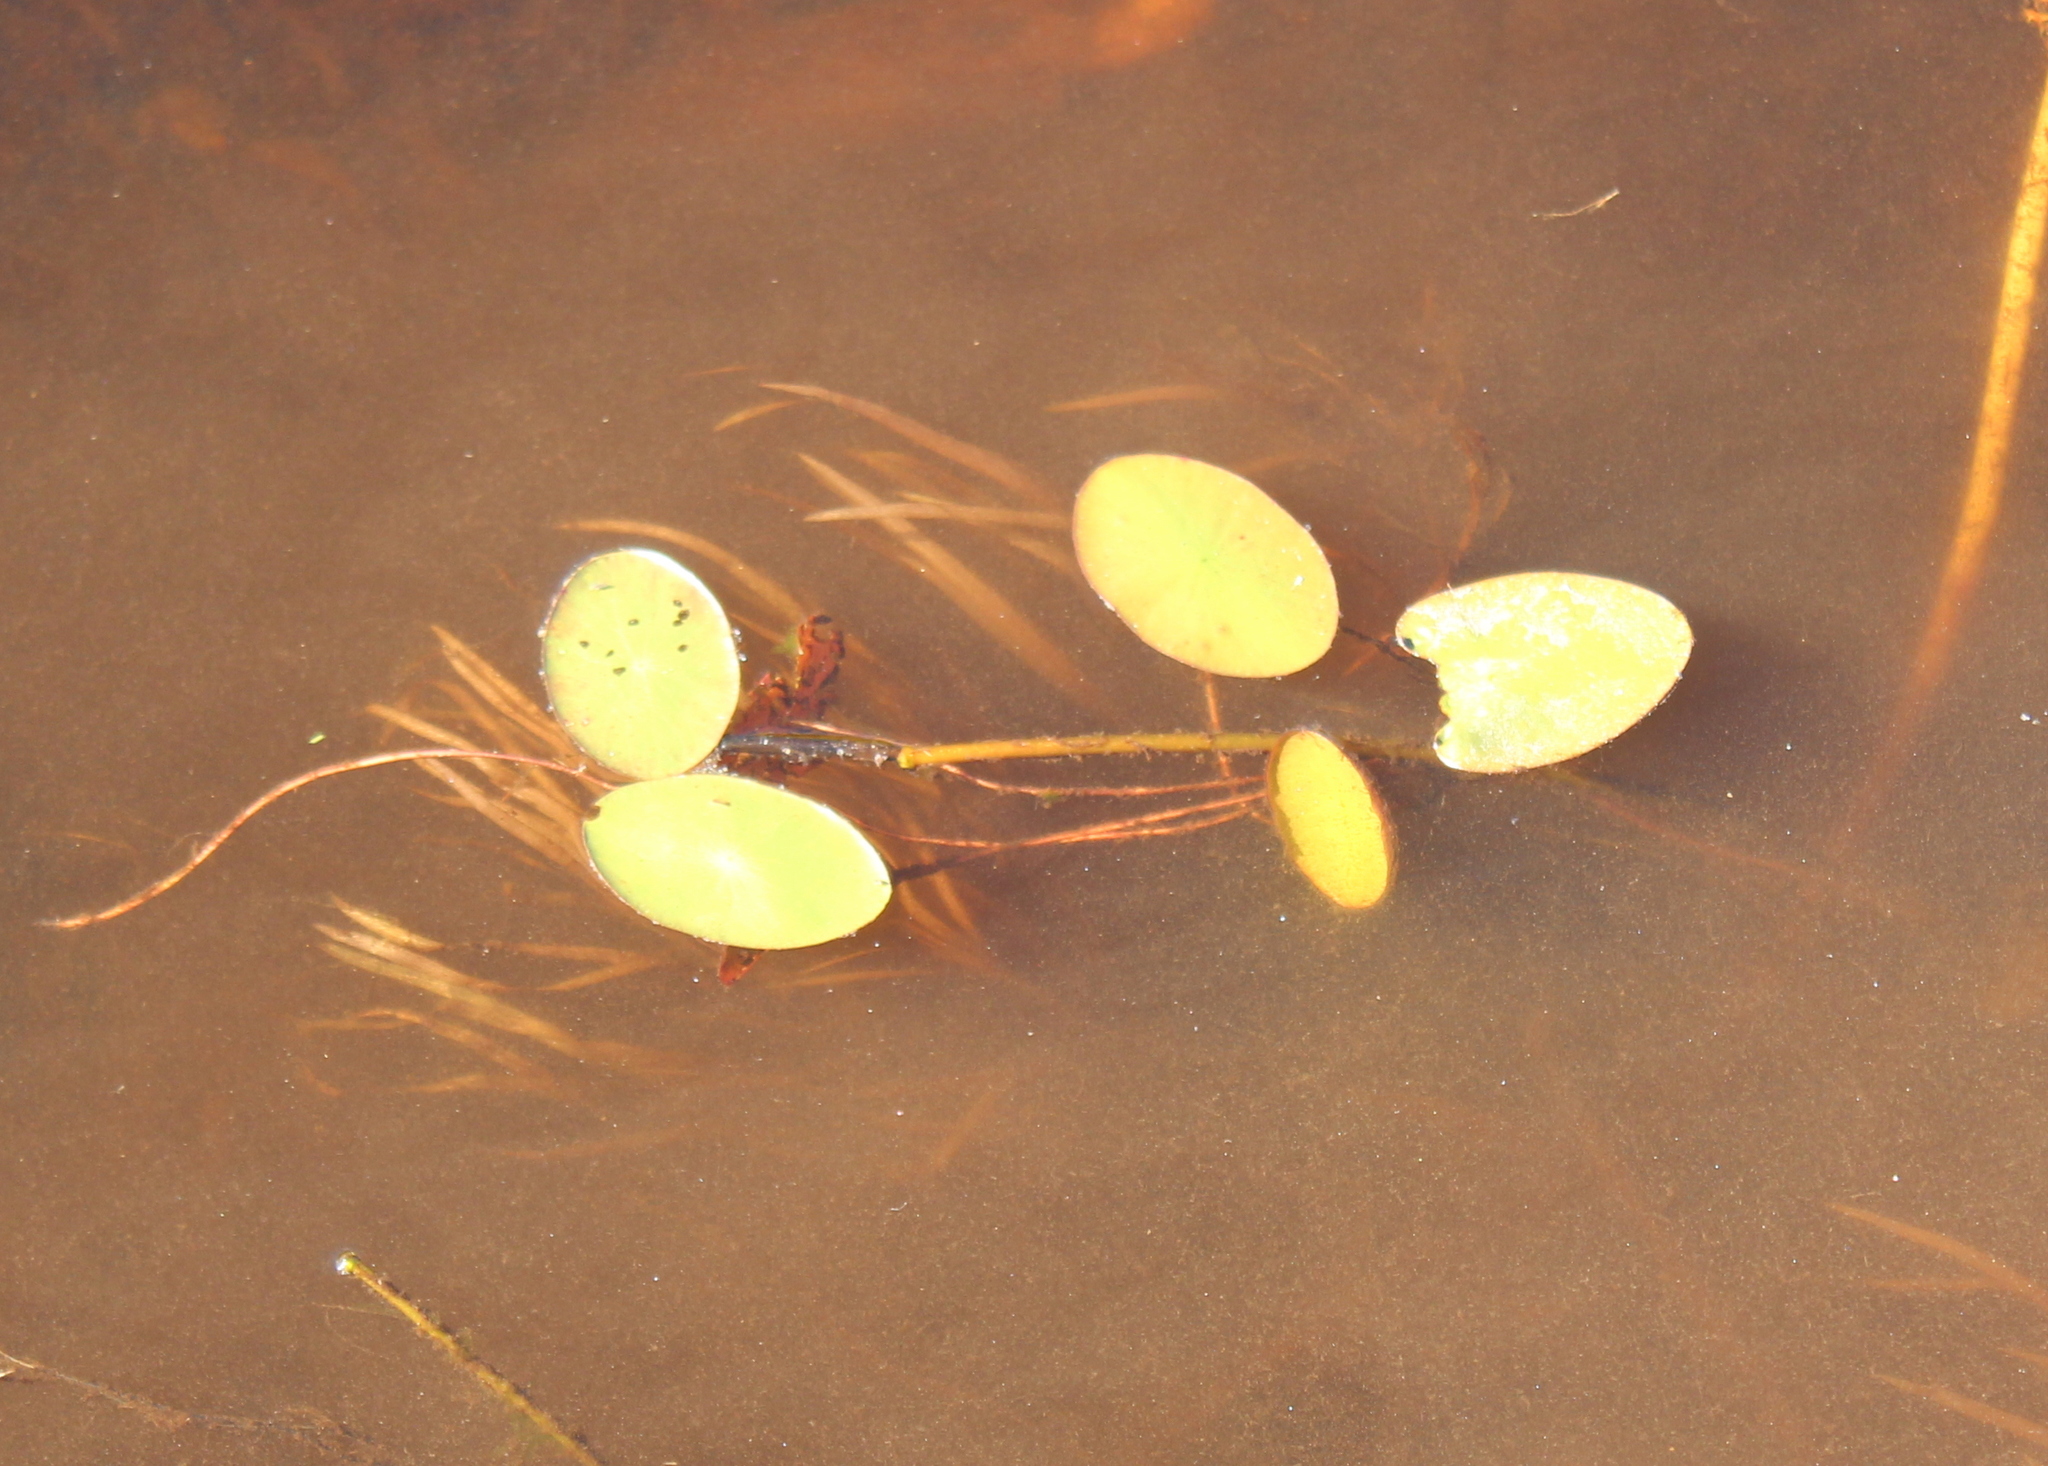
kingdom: Plantae
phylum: Tracheophyta
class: Magnoliopsida
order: Nymphaeales
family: Cabombaceae
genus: Brasenia
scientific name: Brasenia schreberi
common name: Water-shield
